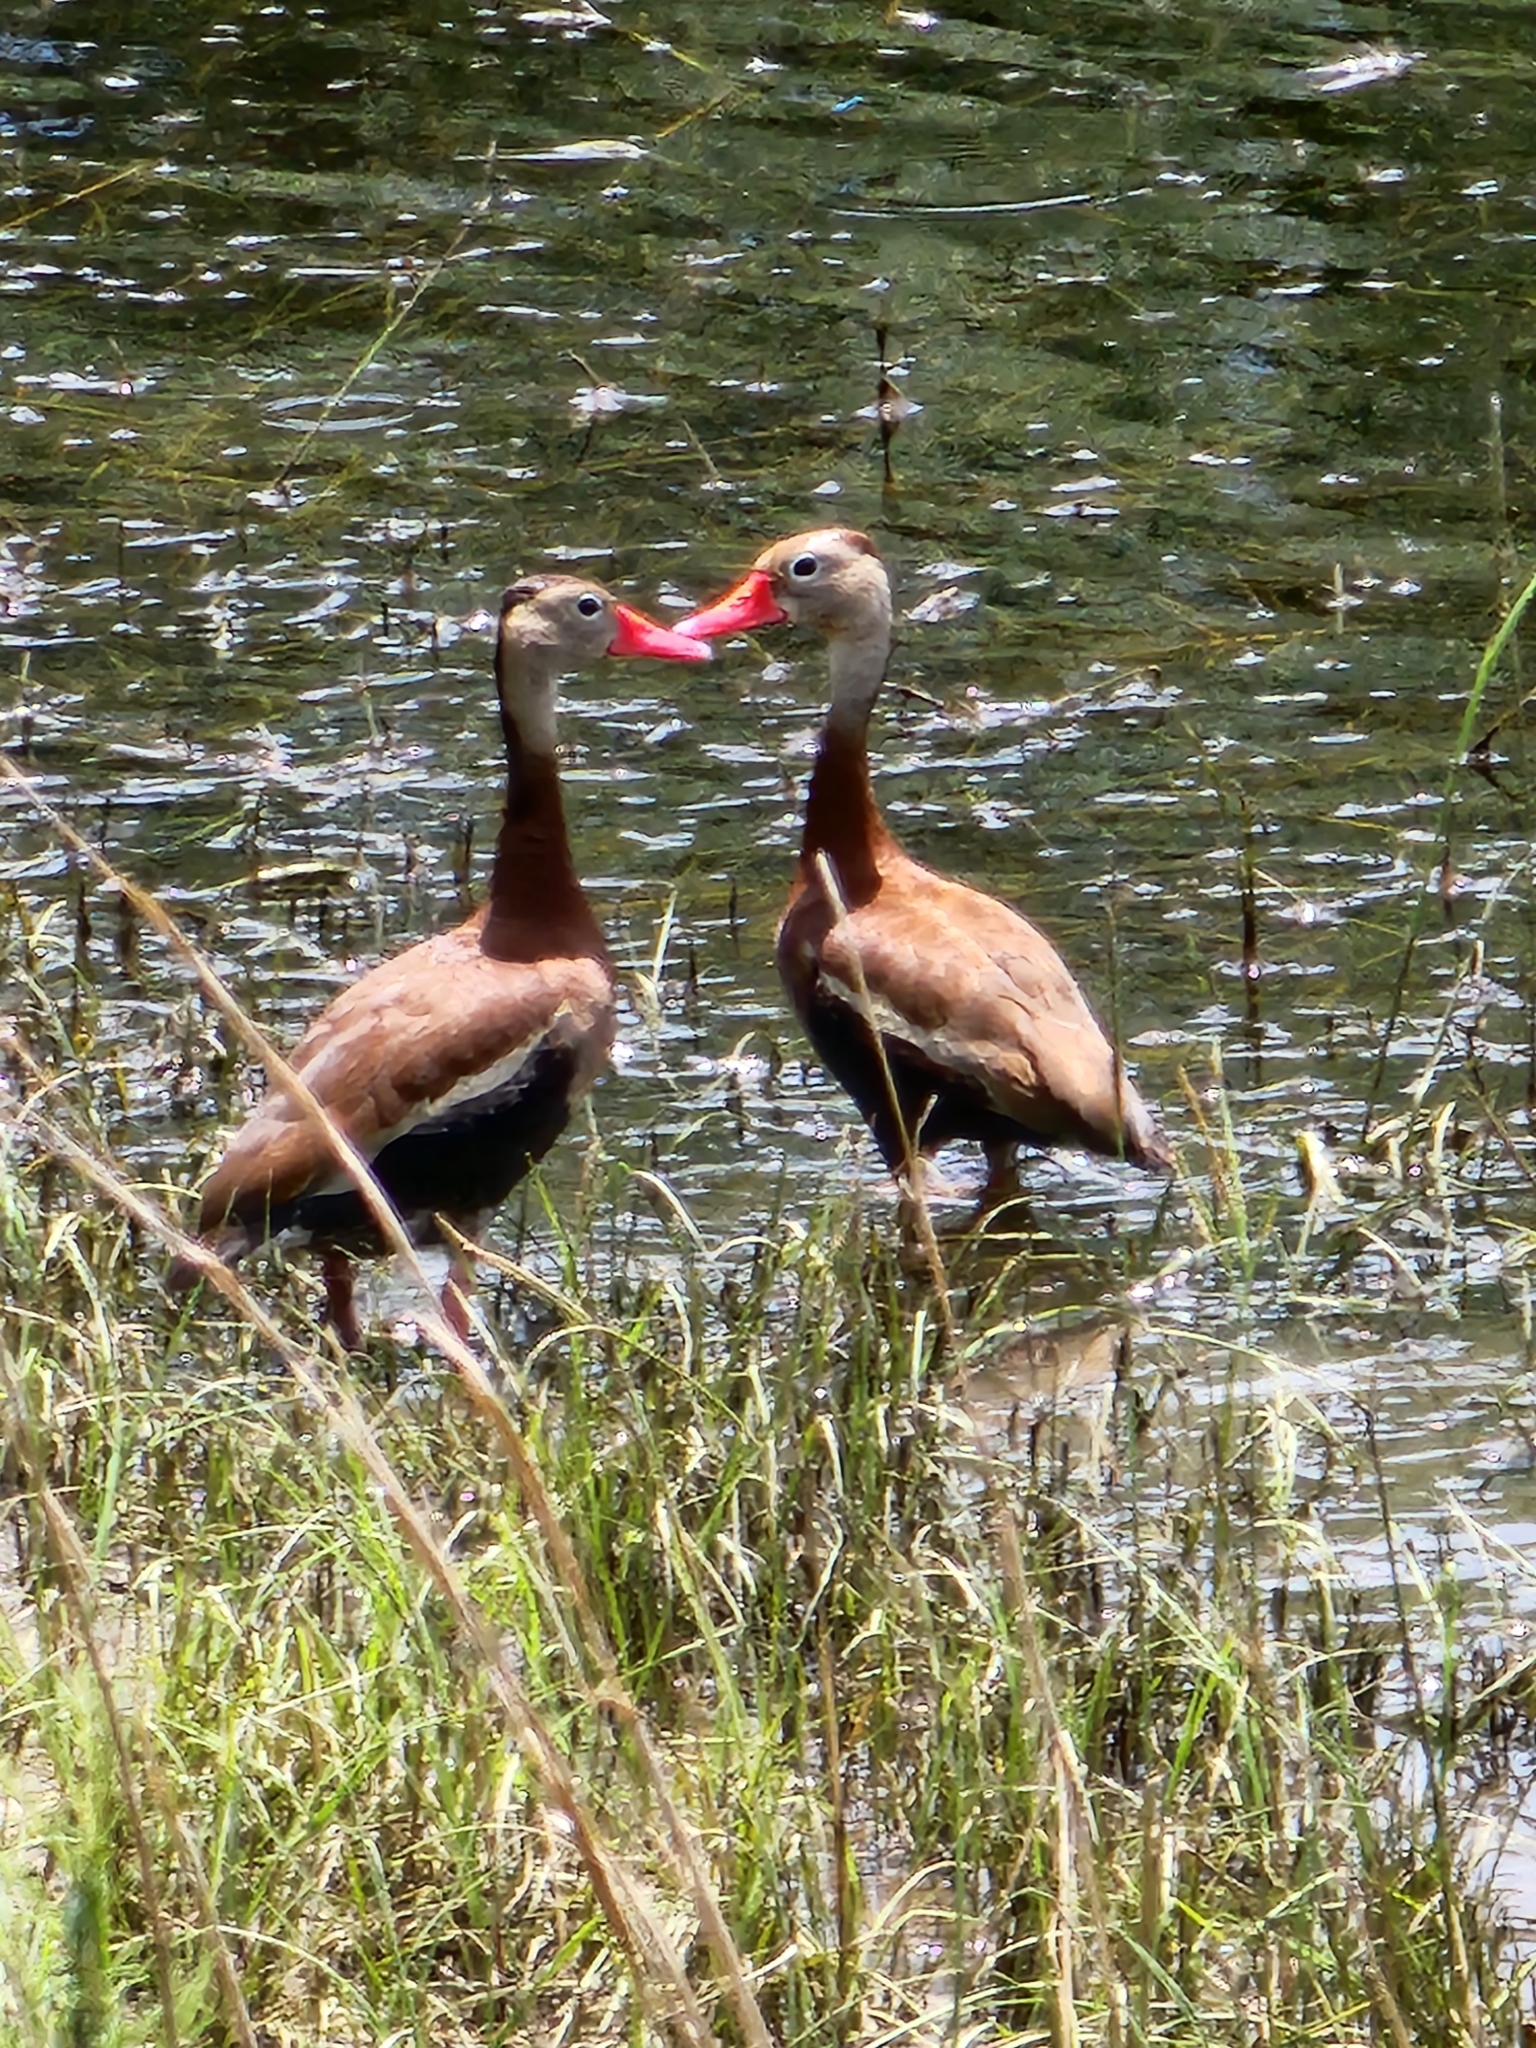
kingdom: Animalia
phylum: Chordata
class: Aves
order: Anseriformes
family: Anatidae
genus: Dendrocygna
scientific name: Dendrocygna autumnalis
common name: Black-bellied whistling duck
